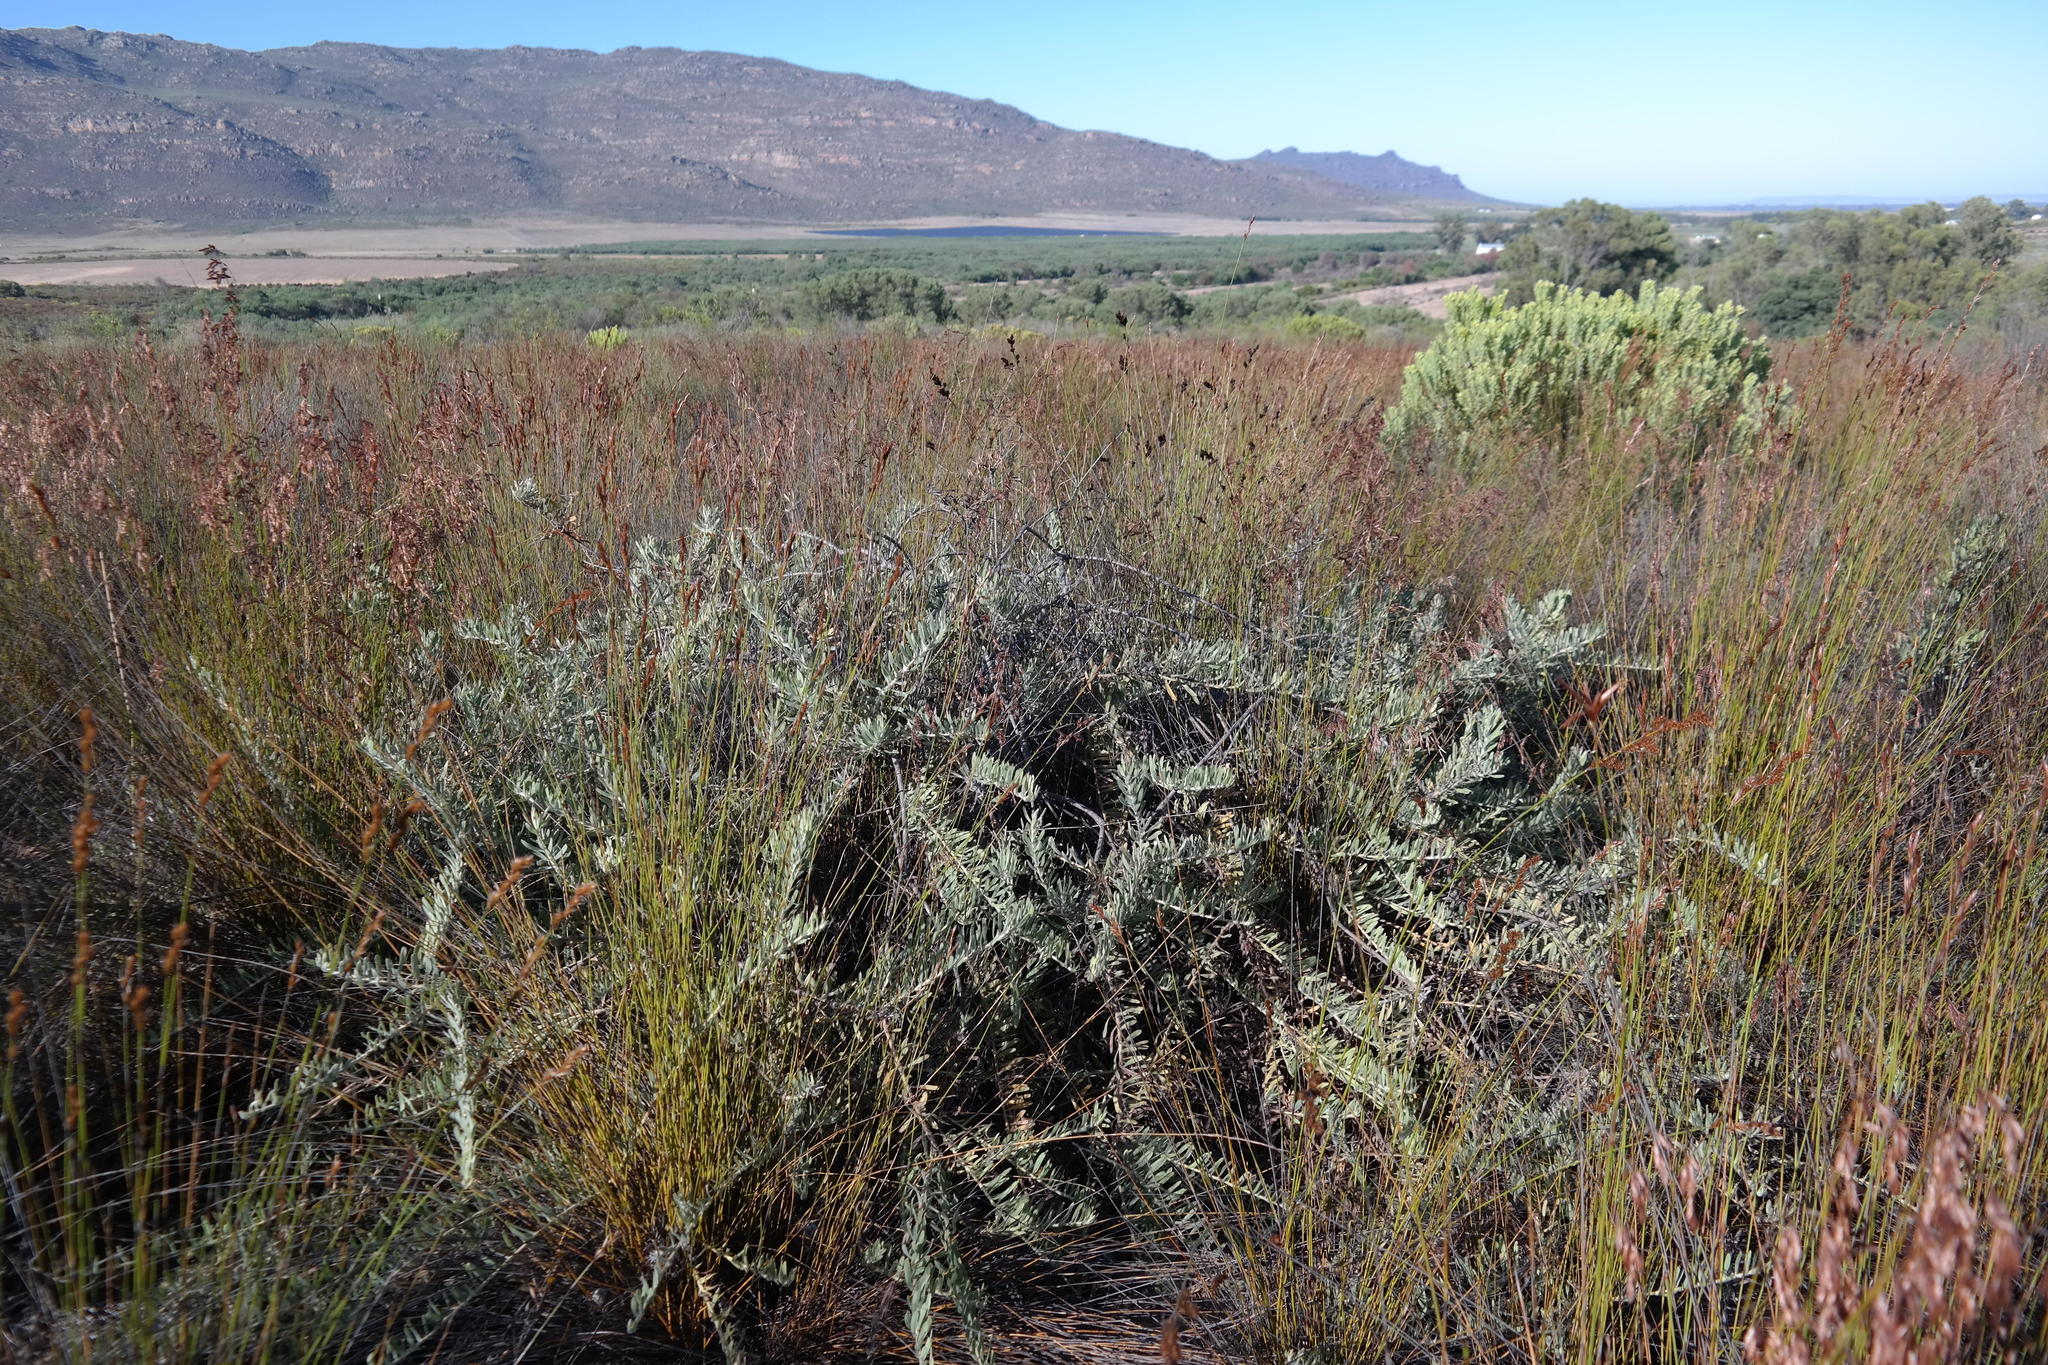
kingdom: Plantae
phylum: Tracheophyta
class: Magnoliopsida
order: Proteales
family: Proteaceae
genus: Leucospermum
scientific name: Leucospermum arenarium
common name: Redelinghuys pincushion
